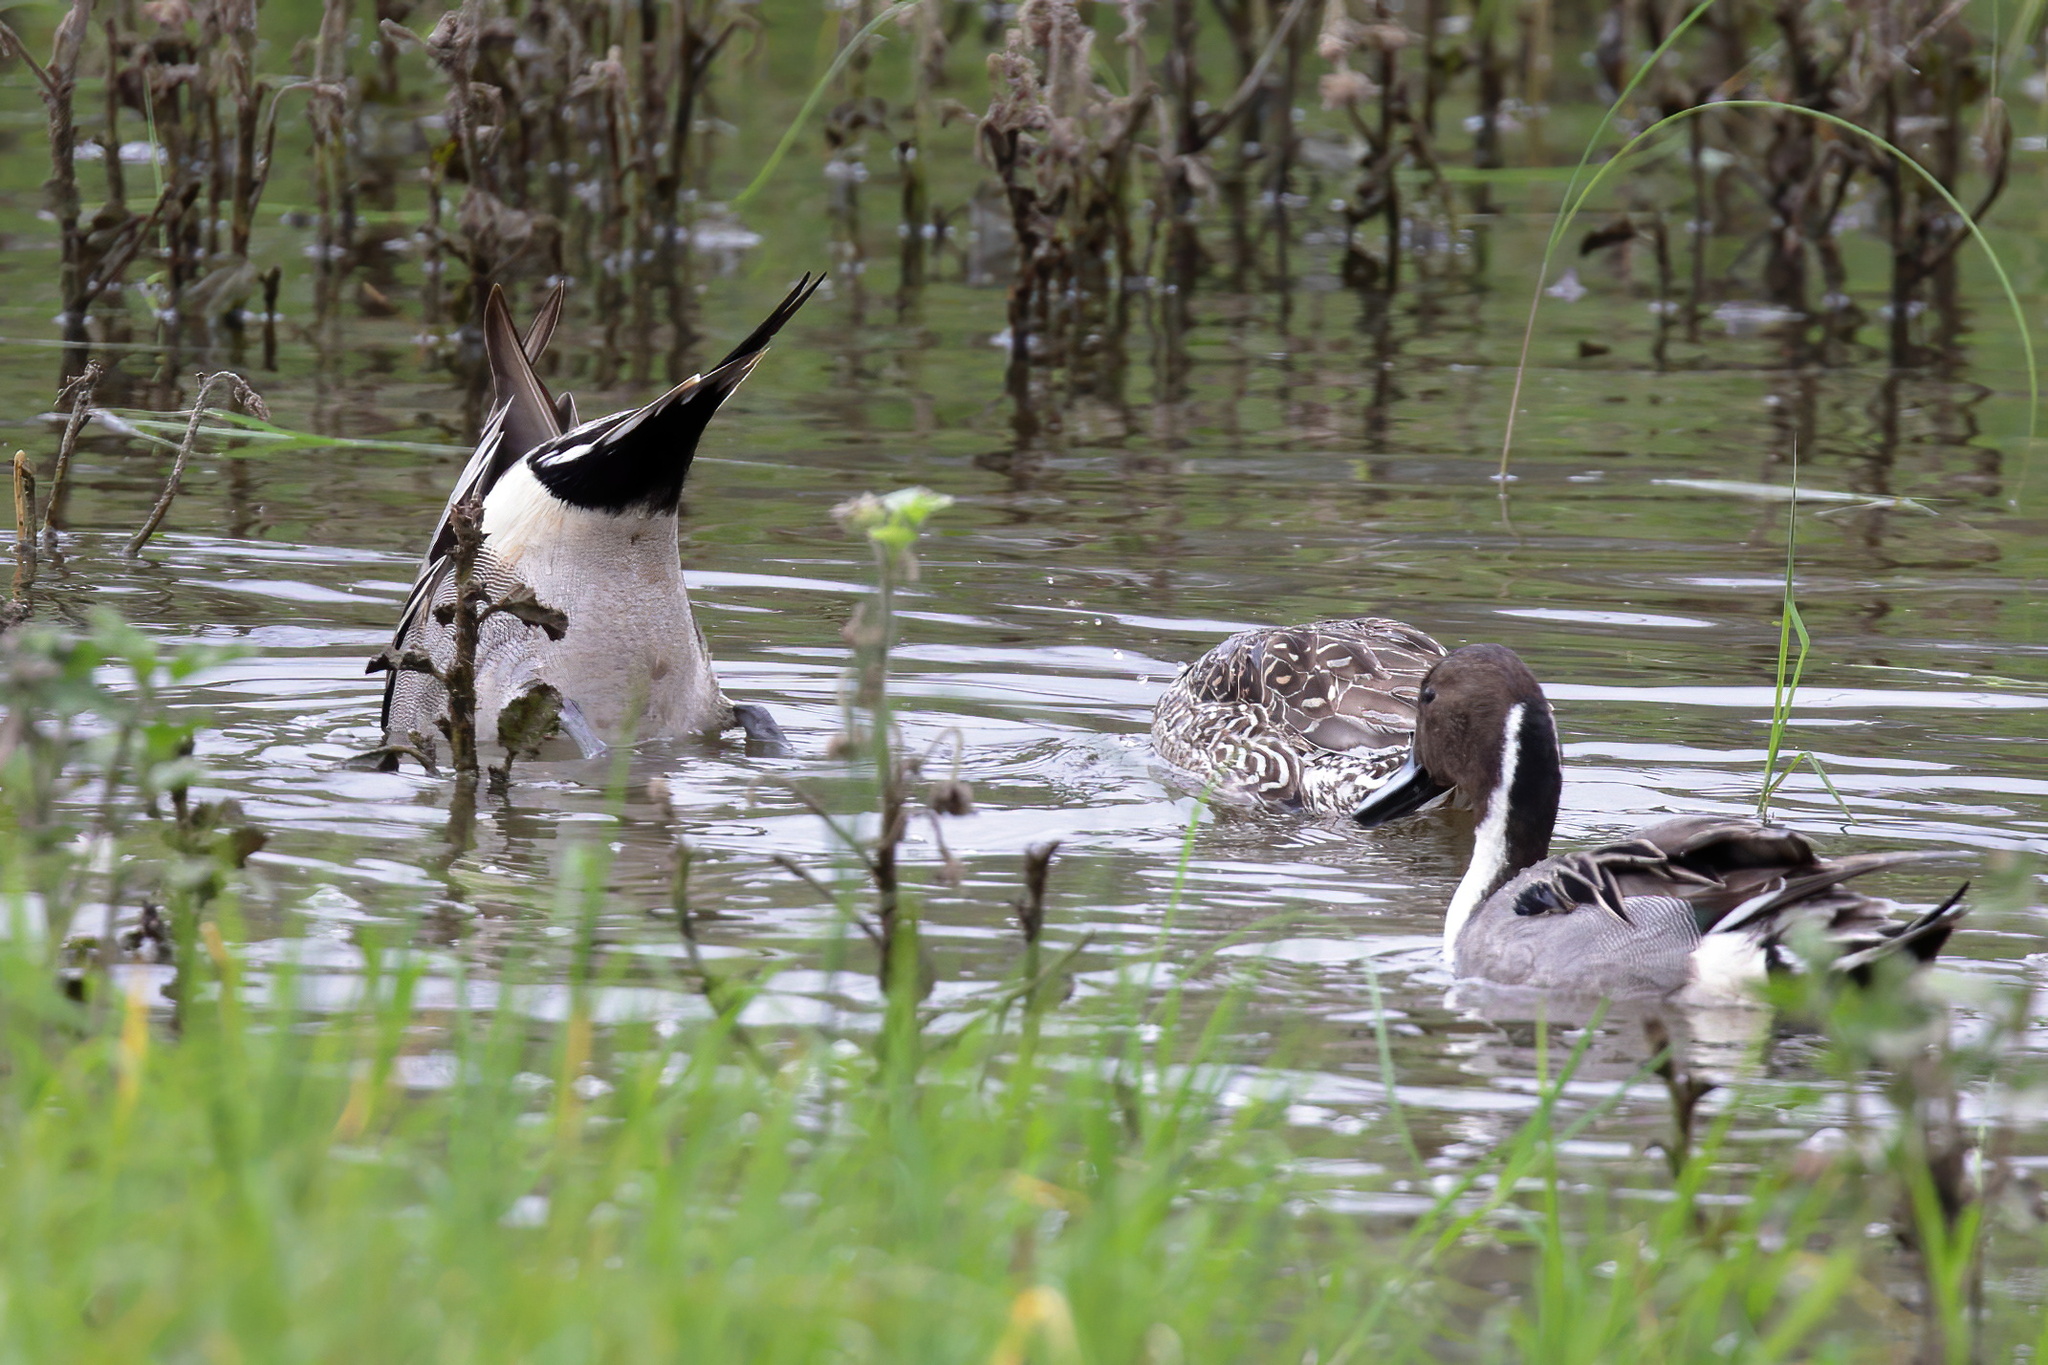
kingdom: Animalia
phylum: Chordata
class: Aves
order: Anseriformes
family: Anatidae
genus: Anas
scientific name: Anas acuta
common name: Northern pintail
